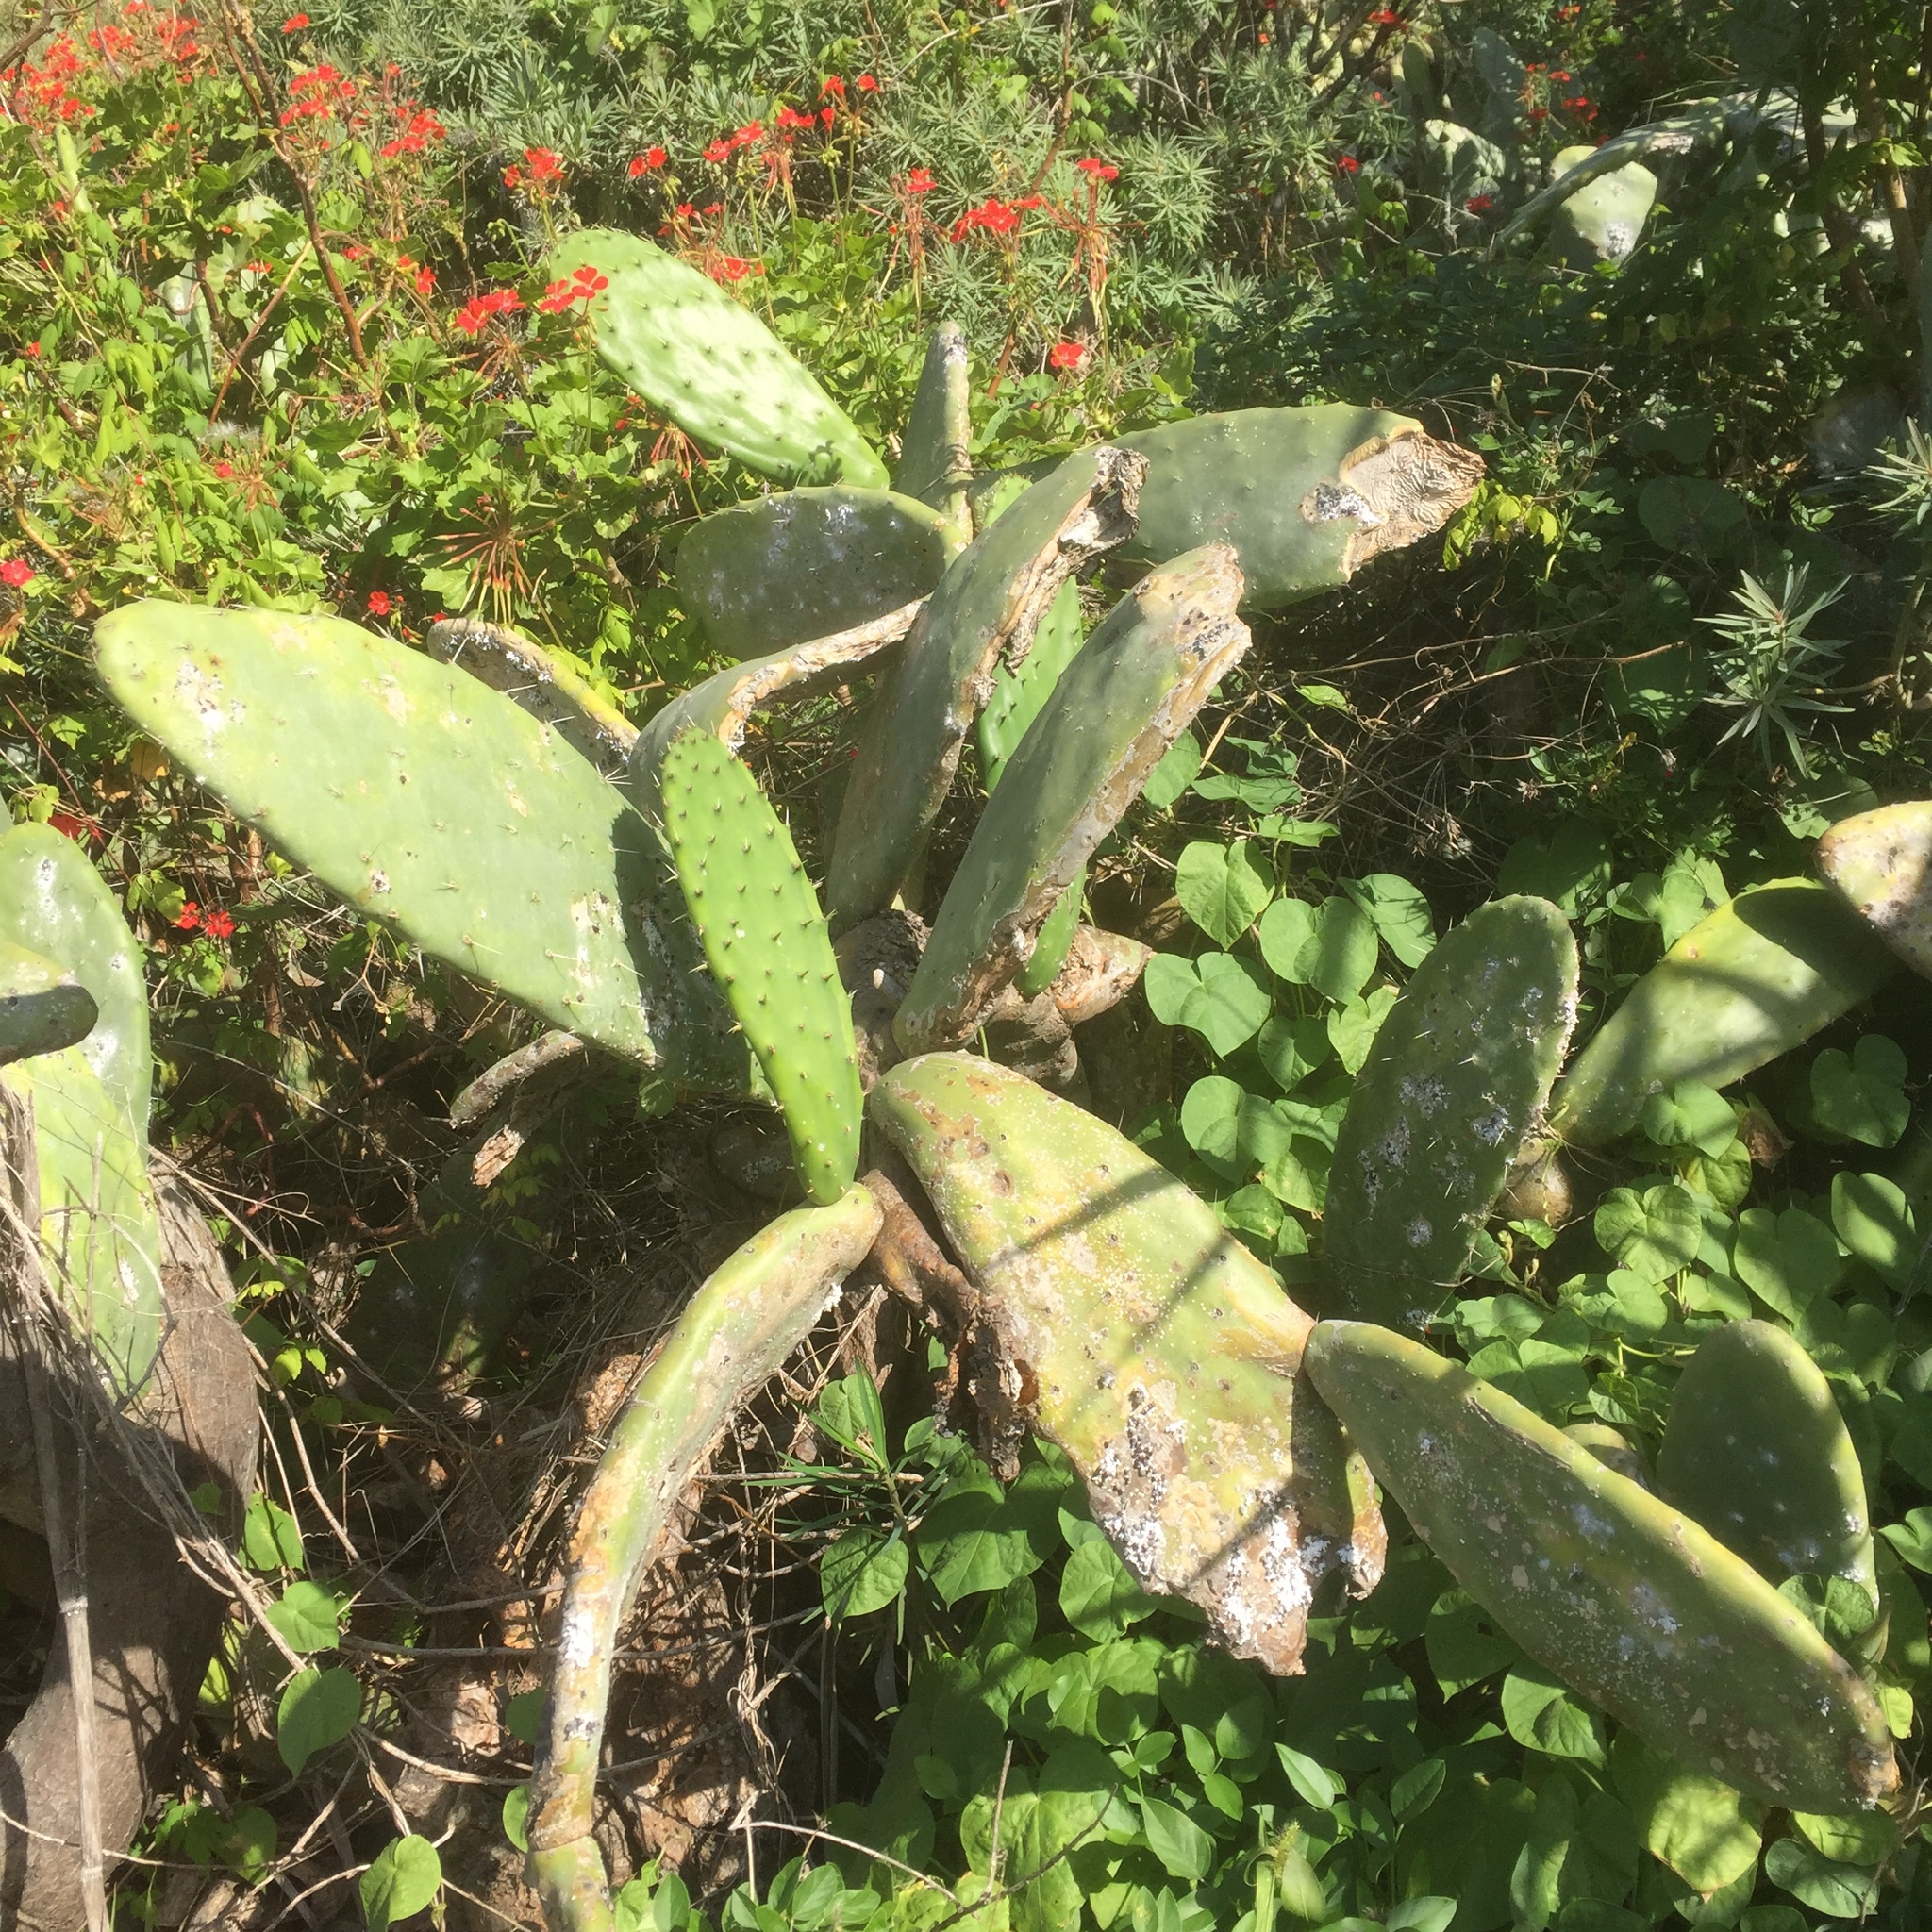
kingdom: Plantae
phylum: Tracheophyta
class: Magnoliopsida
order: Caryophyllales
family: Cactaceae
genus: Opuntia
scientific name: Opuntia ficus-indica
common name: Barbary fig
